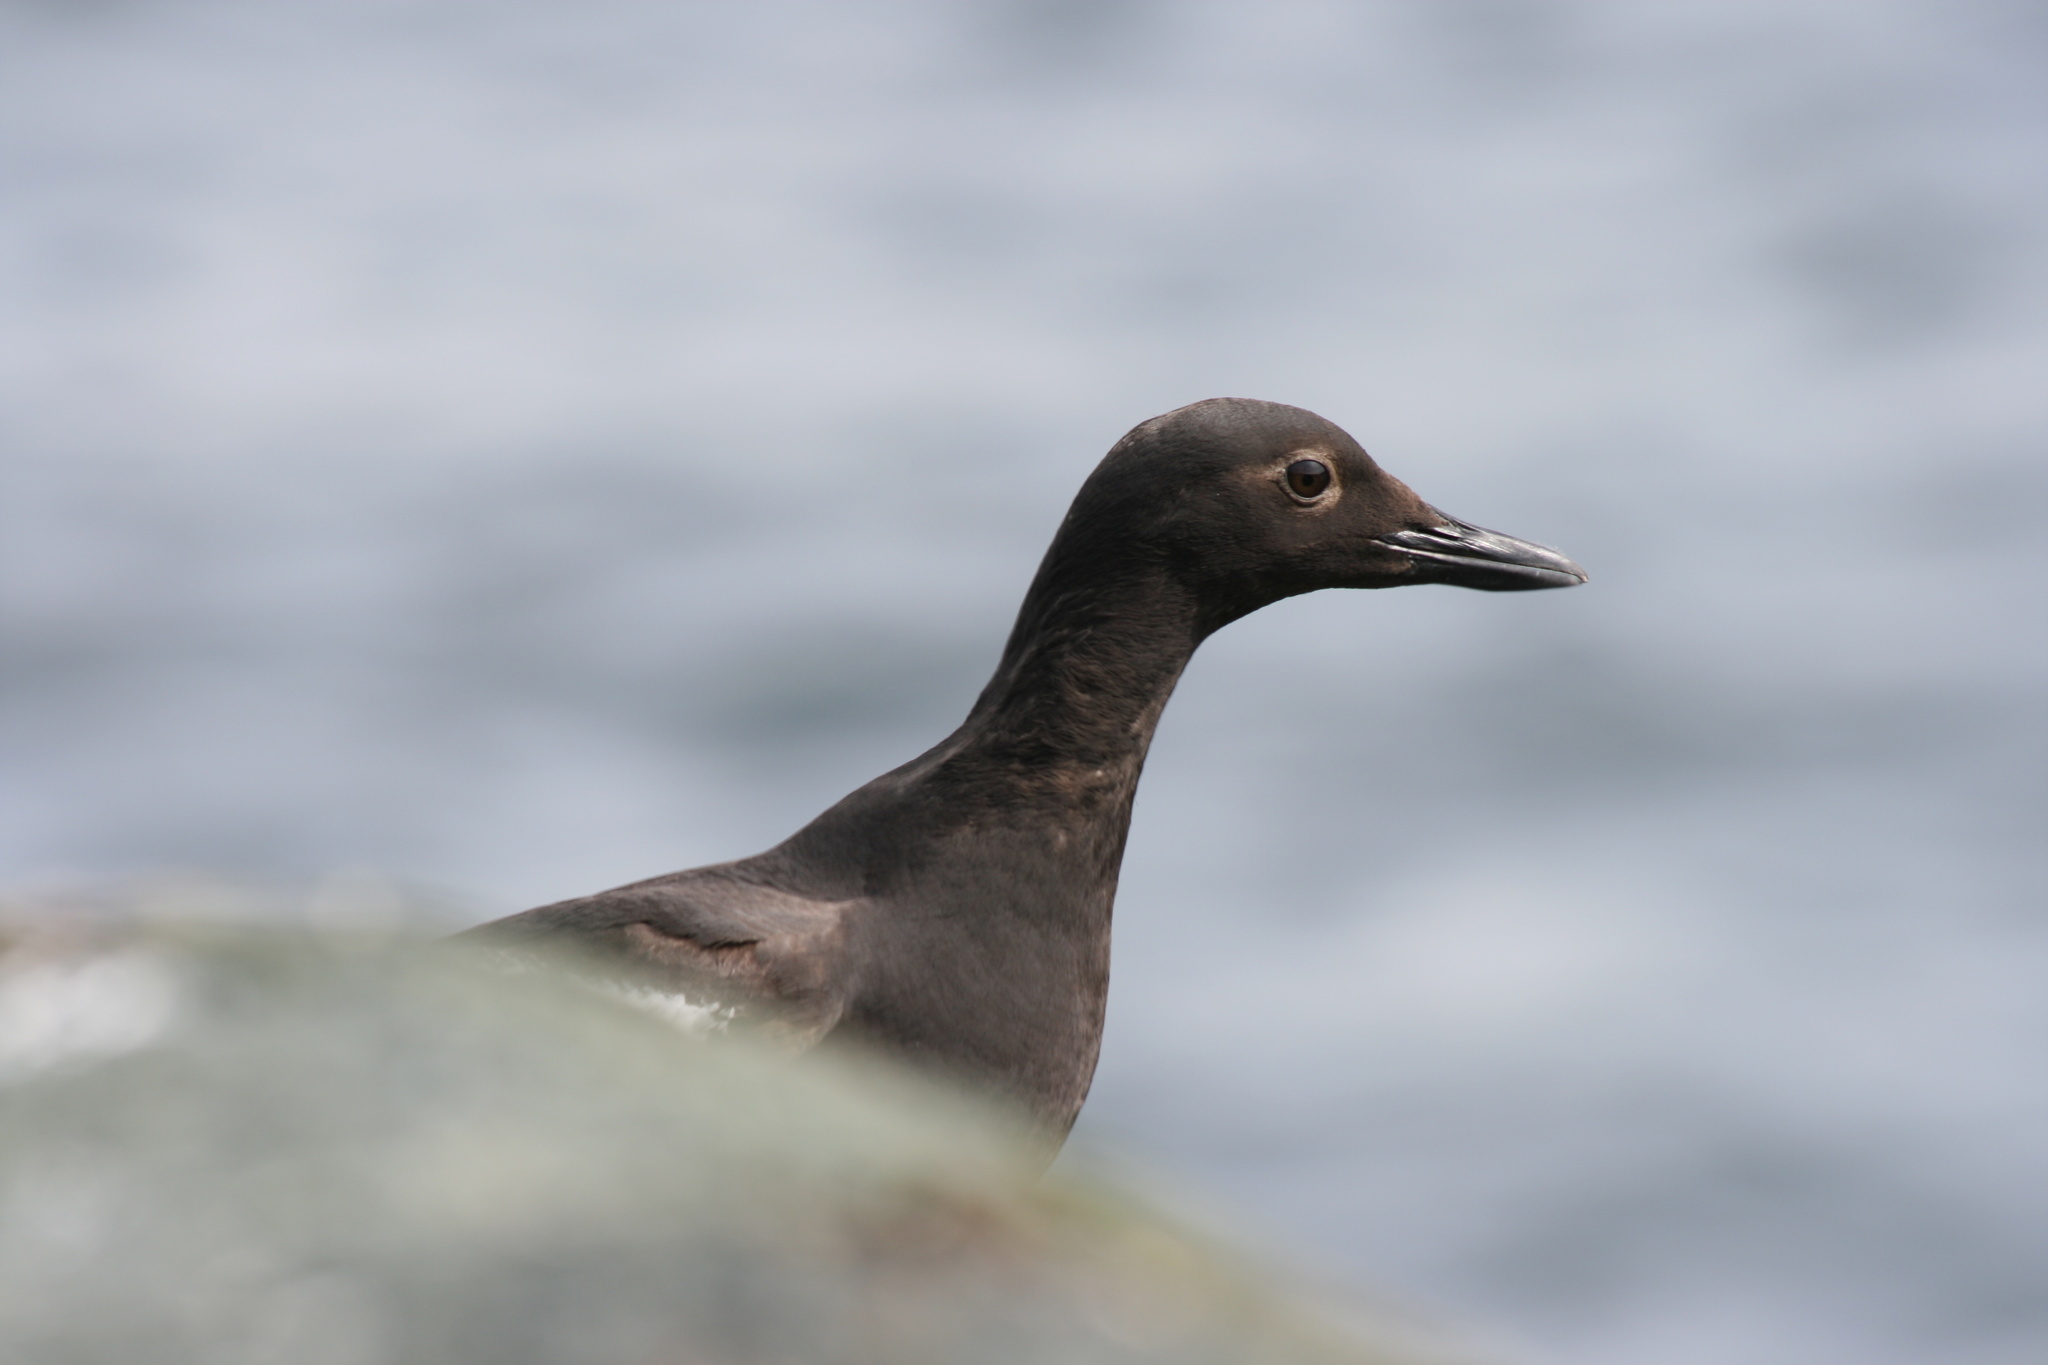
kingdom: Animalia
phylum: Chordata
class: Aves
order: Charadriiformes
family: Alcidae
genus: Cepphus
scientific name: Cepphus columba
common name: Pigeon guillemot
